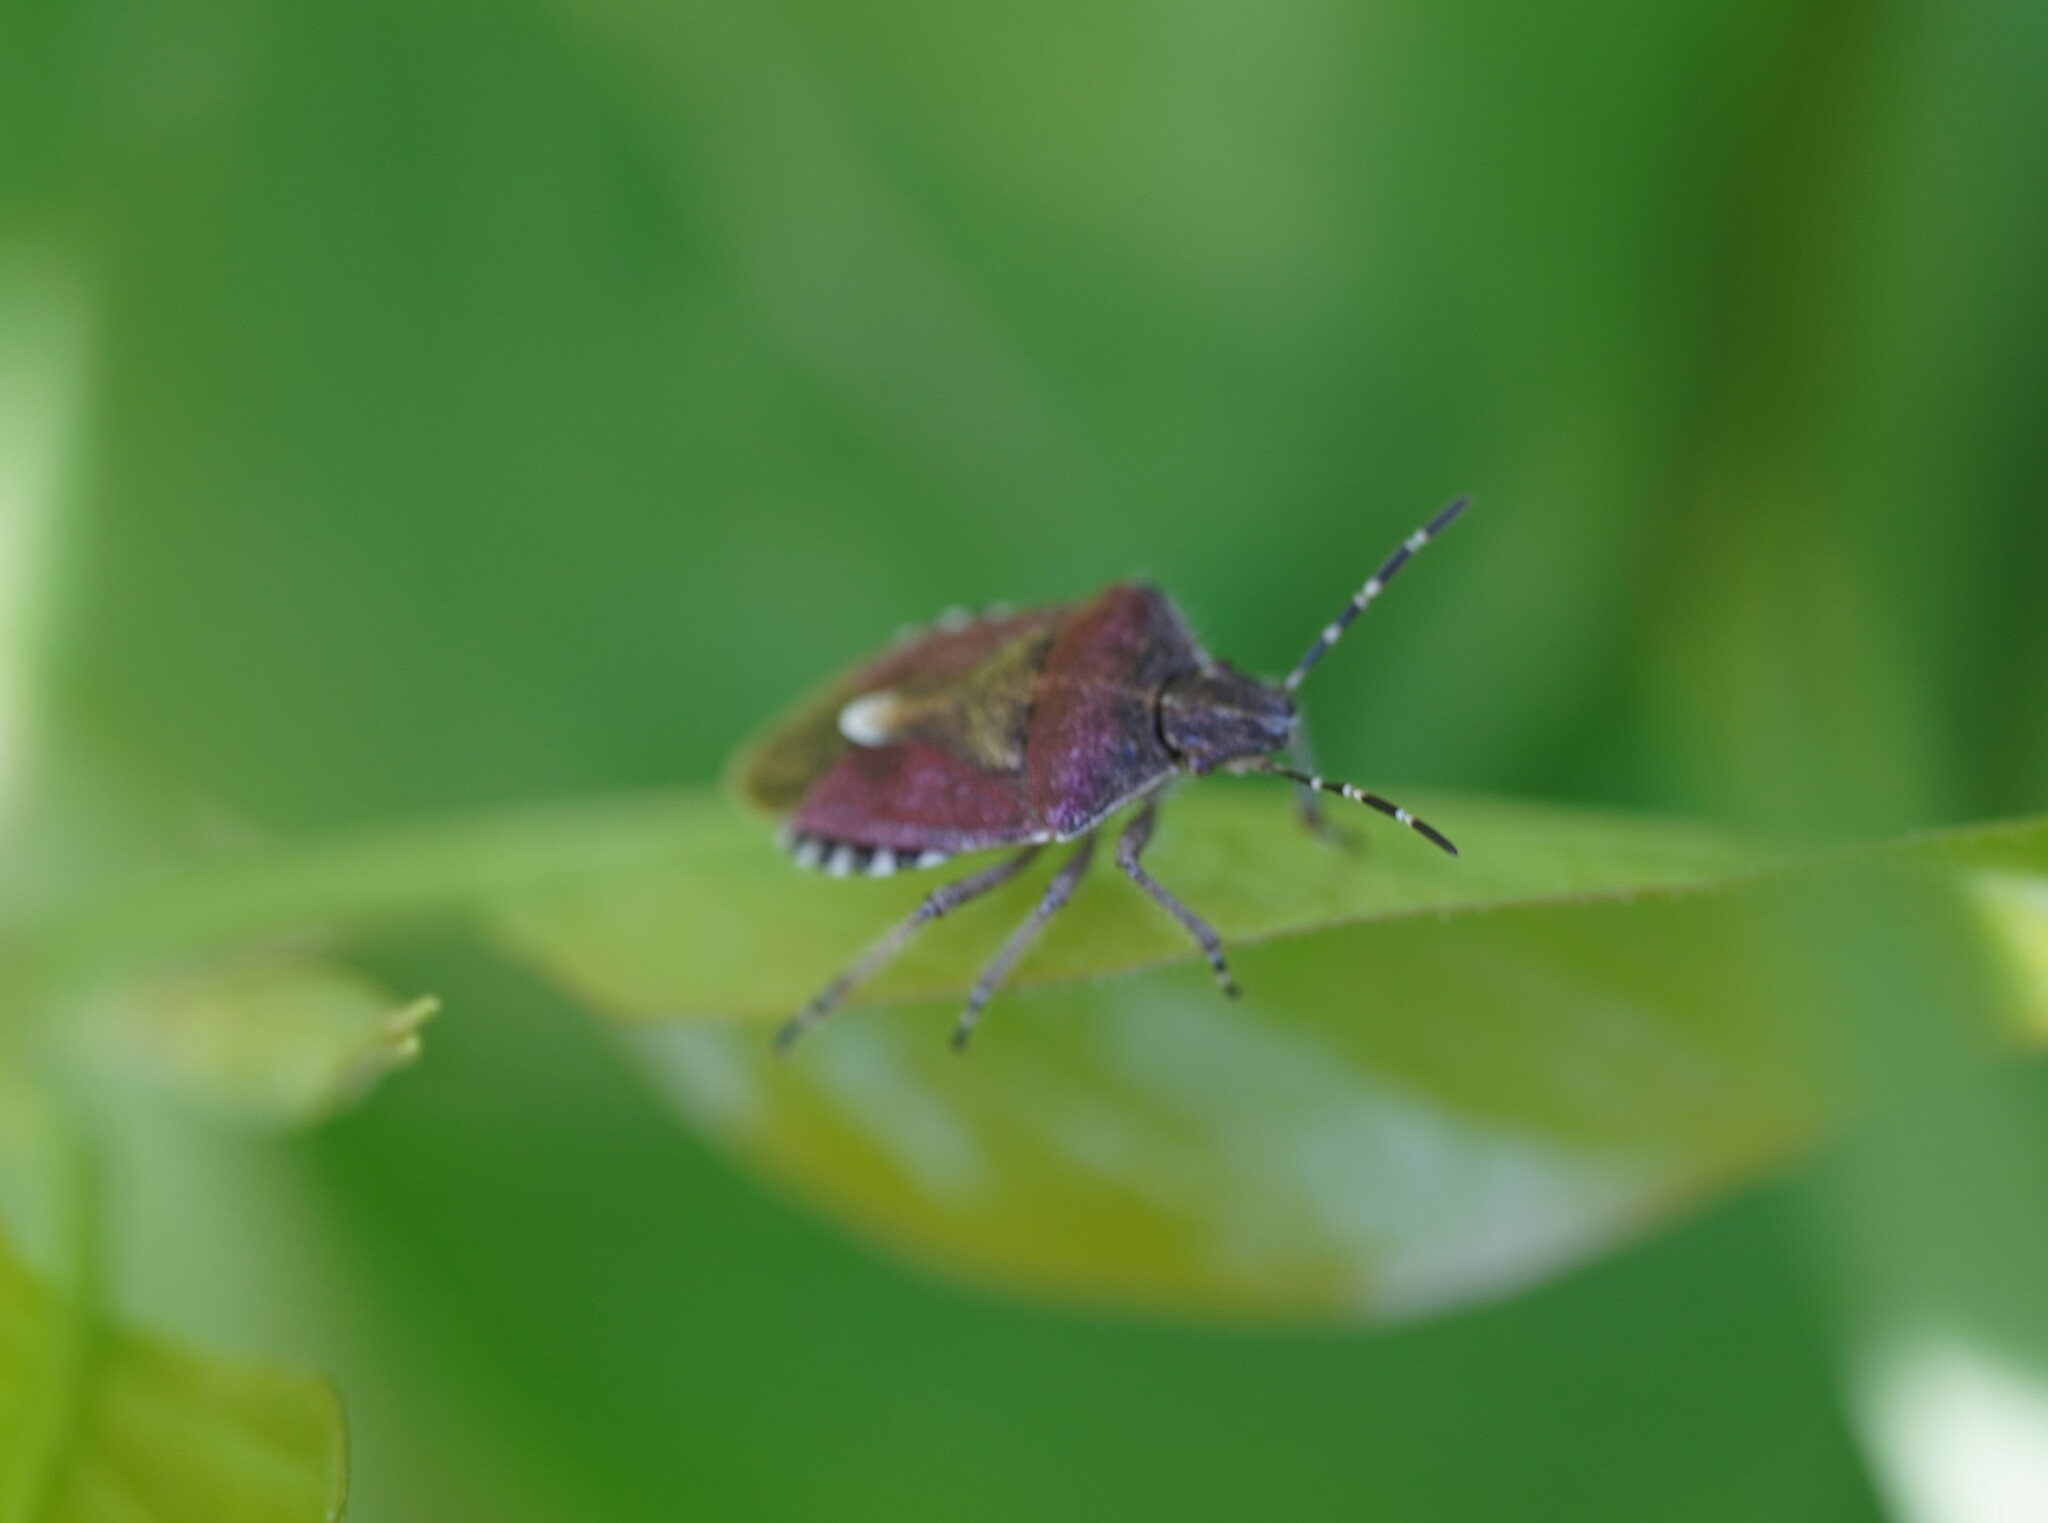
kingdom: Animalia
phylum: Arthropoda
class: Insecta
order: Hemiptera
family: Pentatomidae
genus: Dolycoris
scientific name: Dolycoris baccarum
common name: Sloe bug
